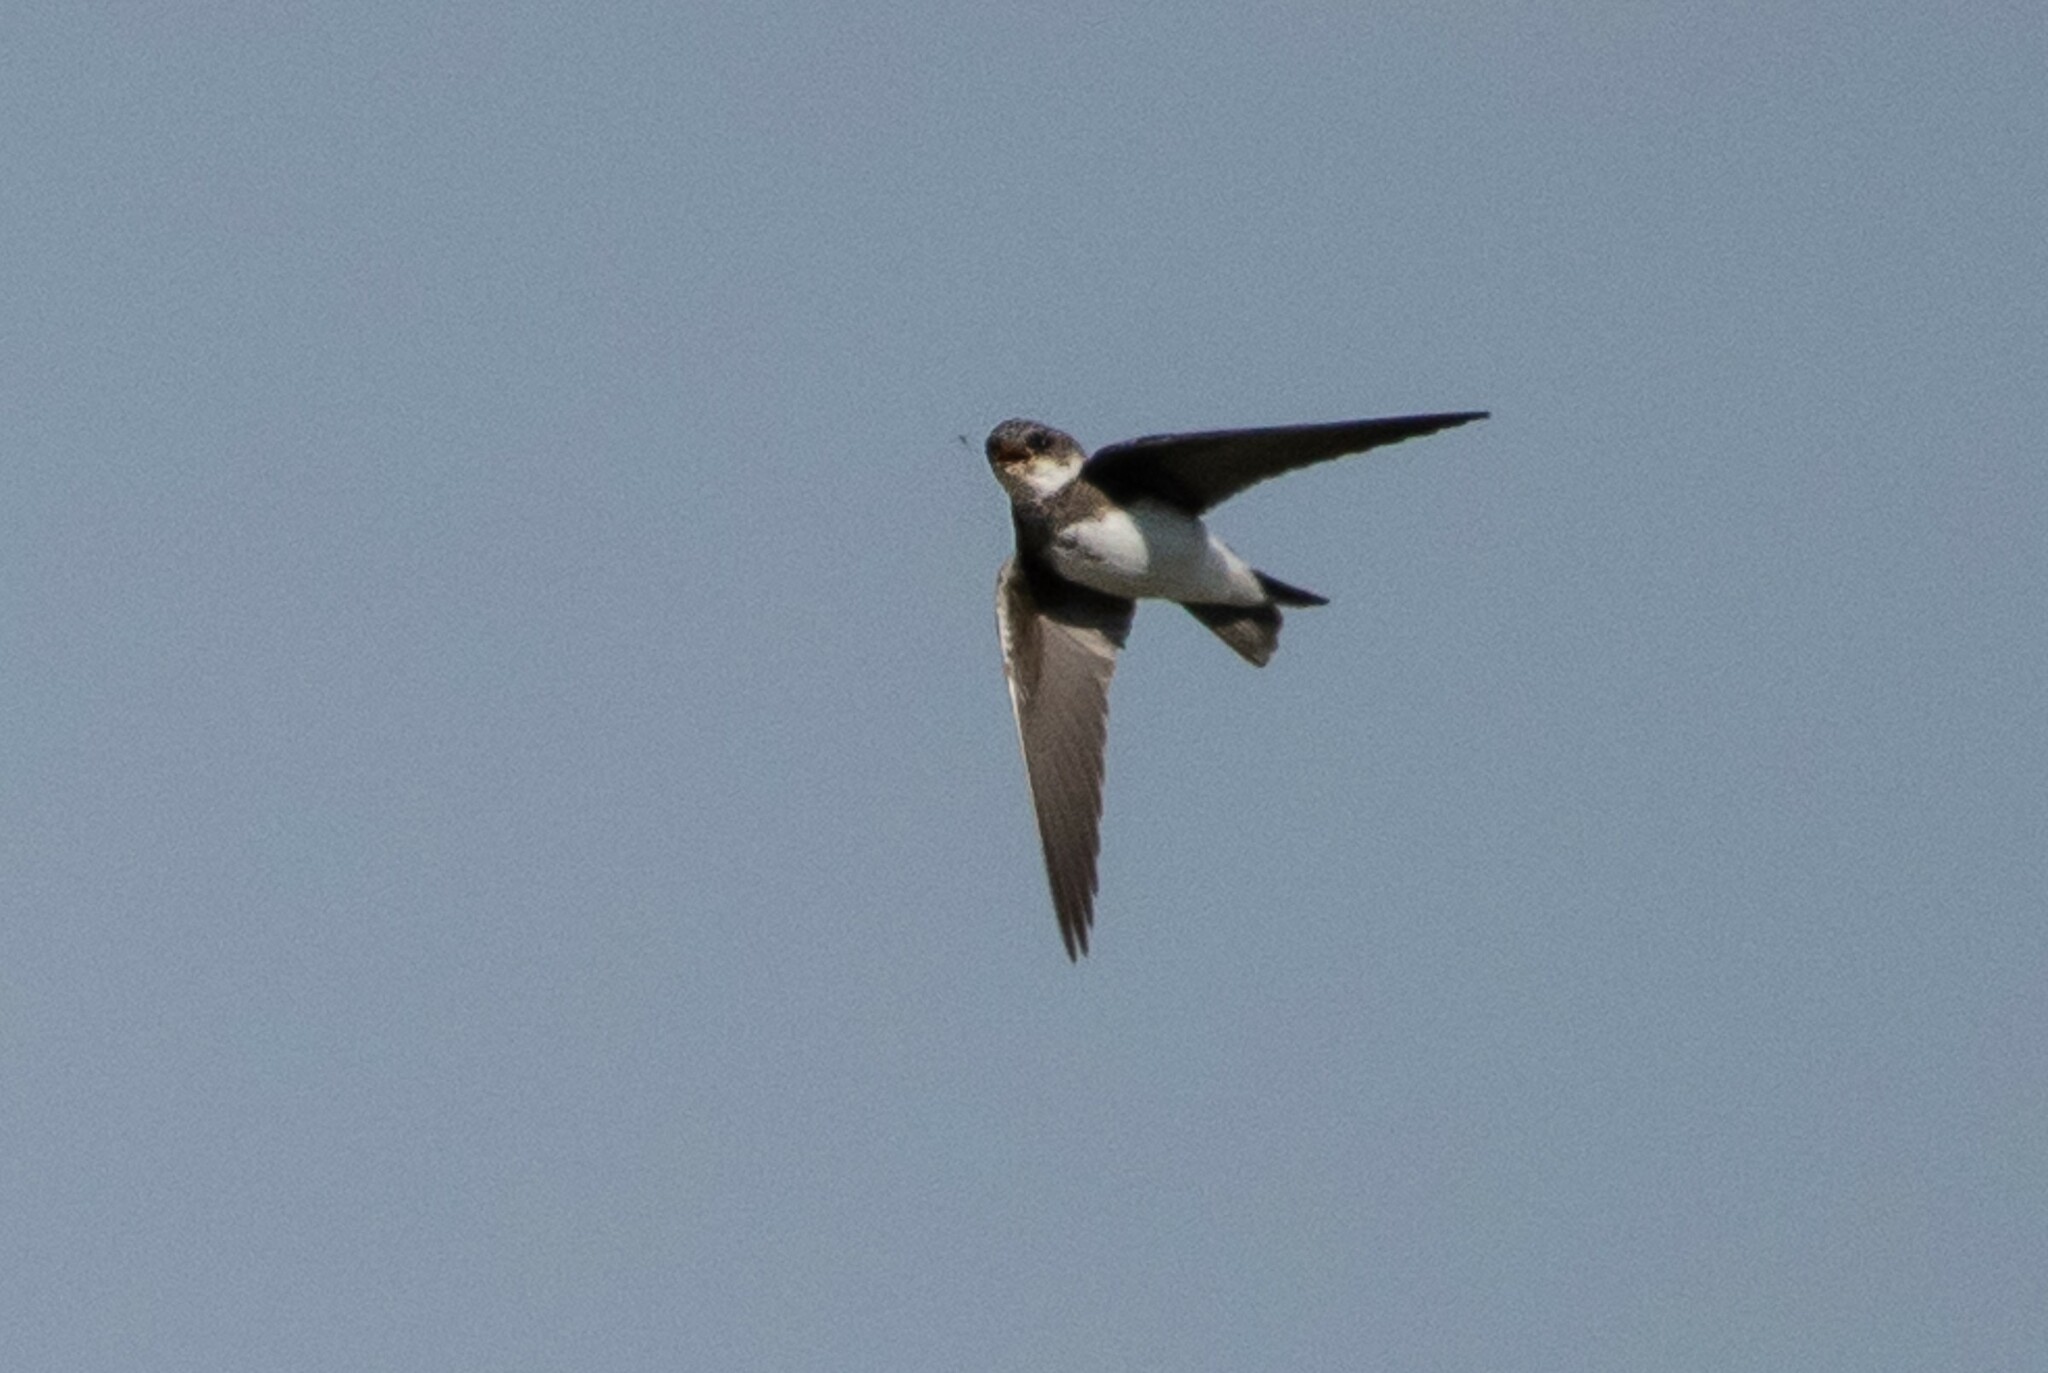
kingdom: Animalia
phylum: Chordata
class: Aves
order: Passeriformes
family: Hirundinidae
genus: Riparia
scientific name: Riparia riparia
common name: Sand martin
